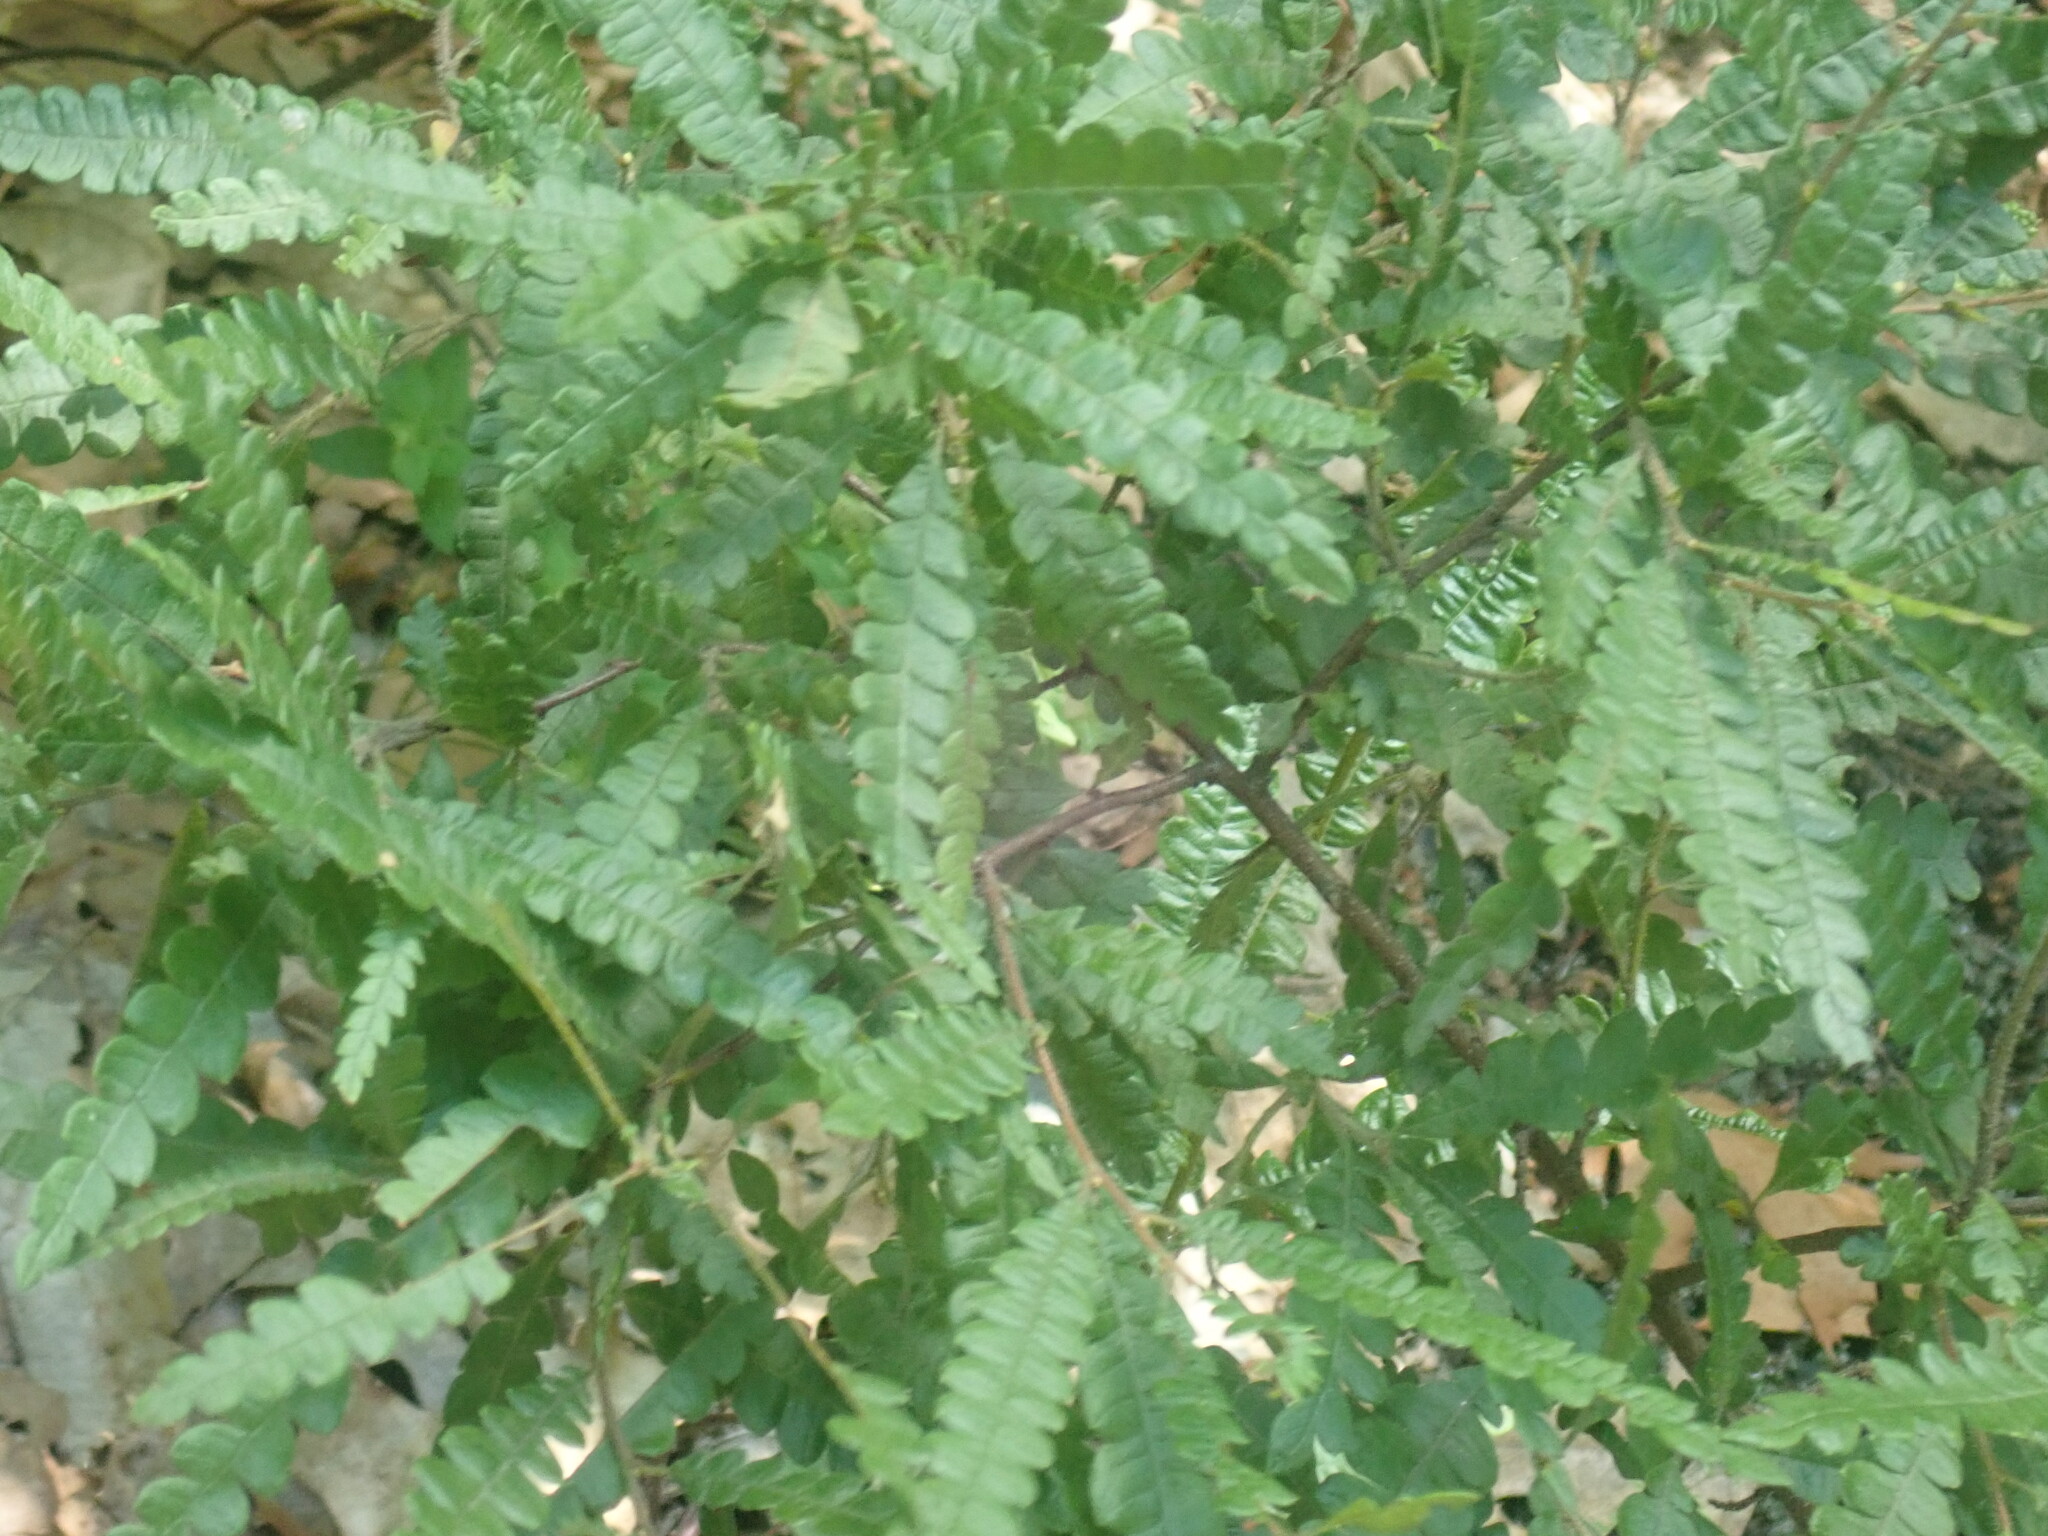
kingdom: Plantae
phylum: Tracheophyta
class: Magnoliopsida
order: Fagales
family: Myricaceae
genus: Comptonia
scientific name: Comptonia peregrina
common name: Sweet-fern
